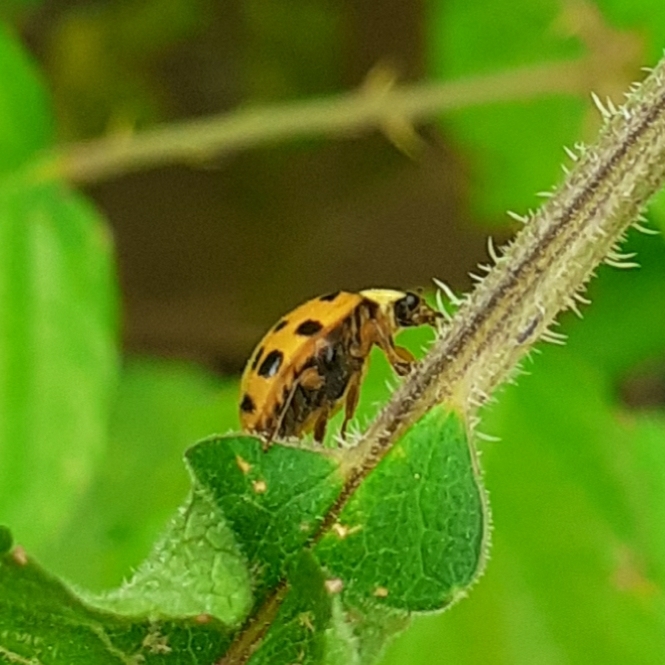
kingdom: Animalia
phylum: Arthropoda
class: Insecta
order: Coleoptera
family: Coccinellidae
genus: Harmonia
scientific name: Harmonia axyridis
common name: Harlequin ladybird
